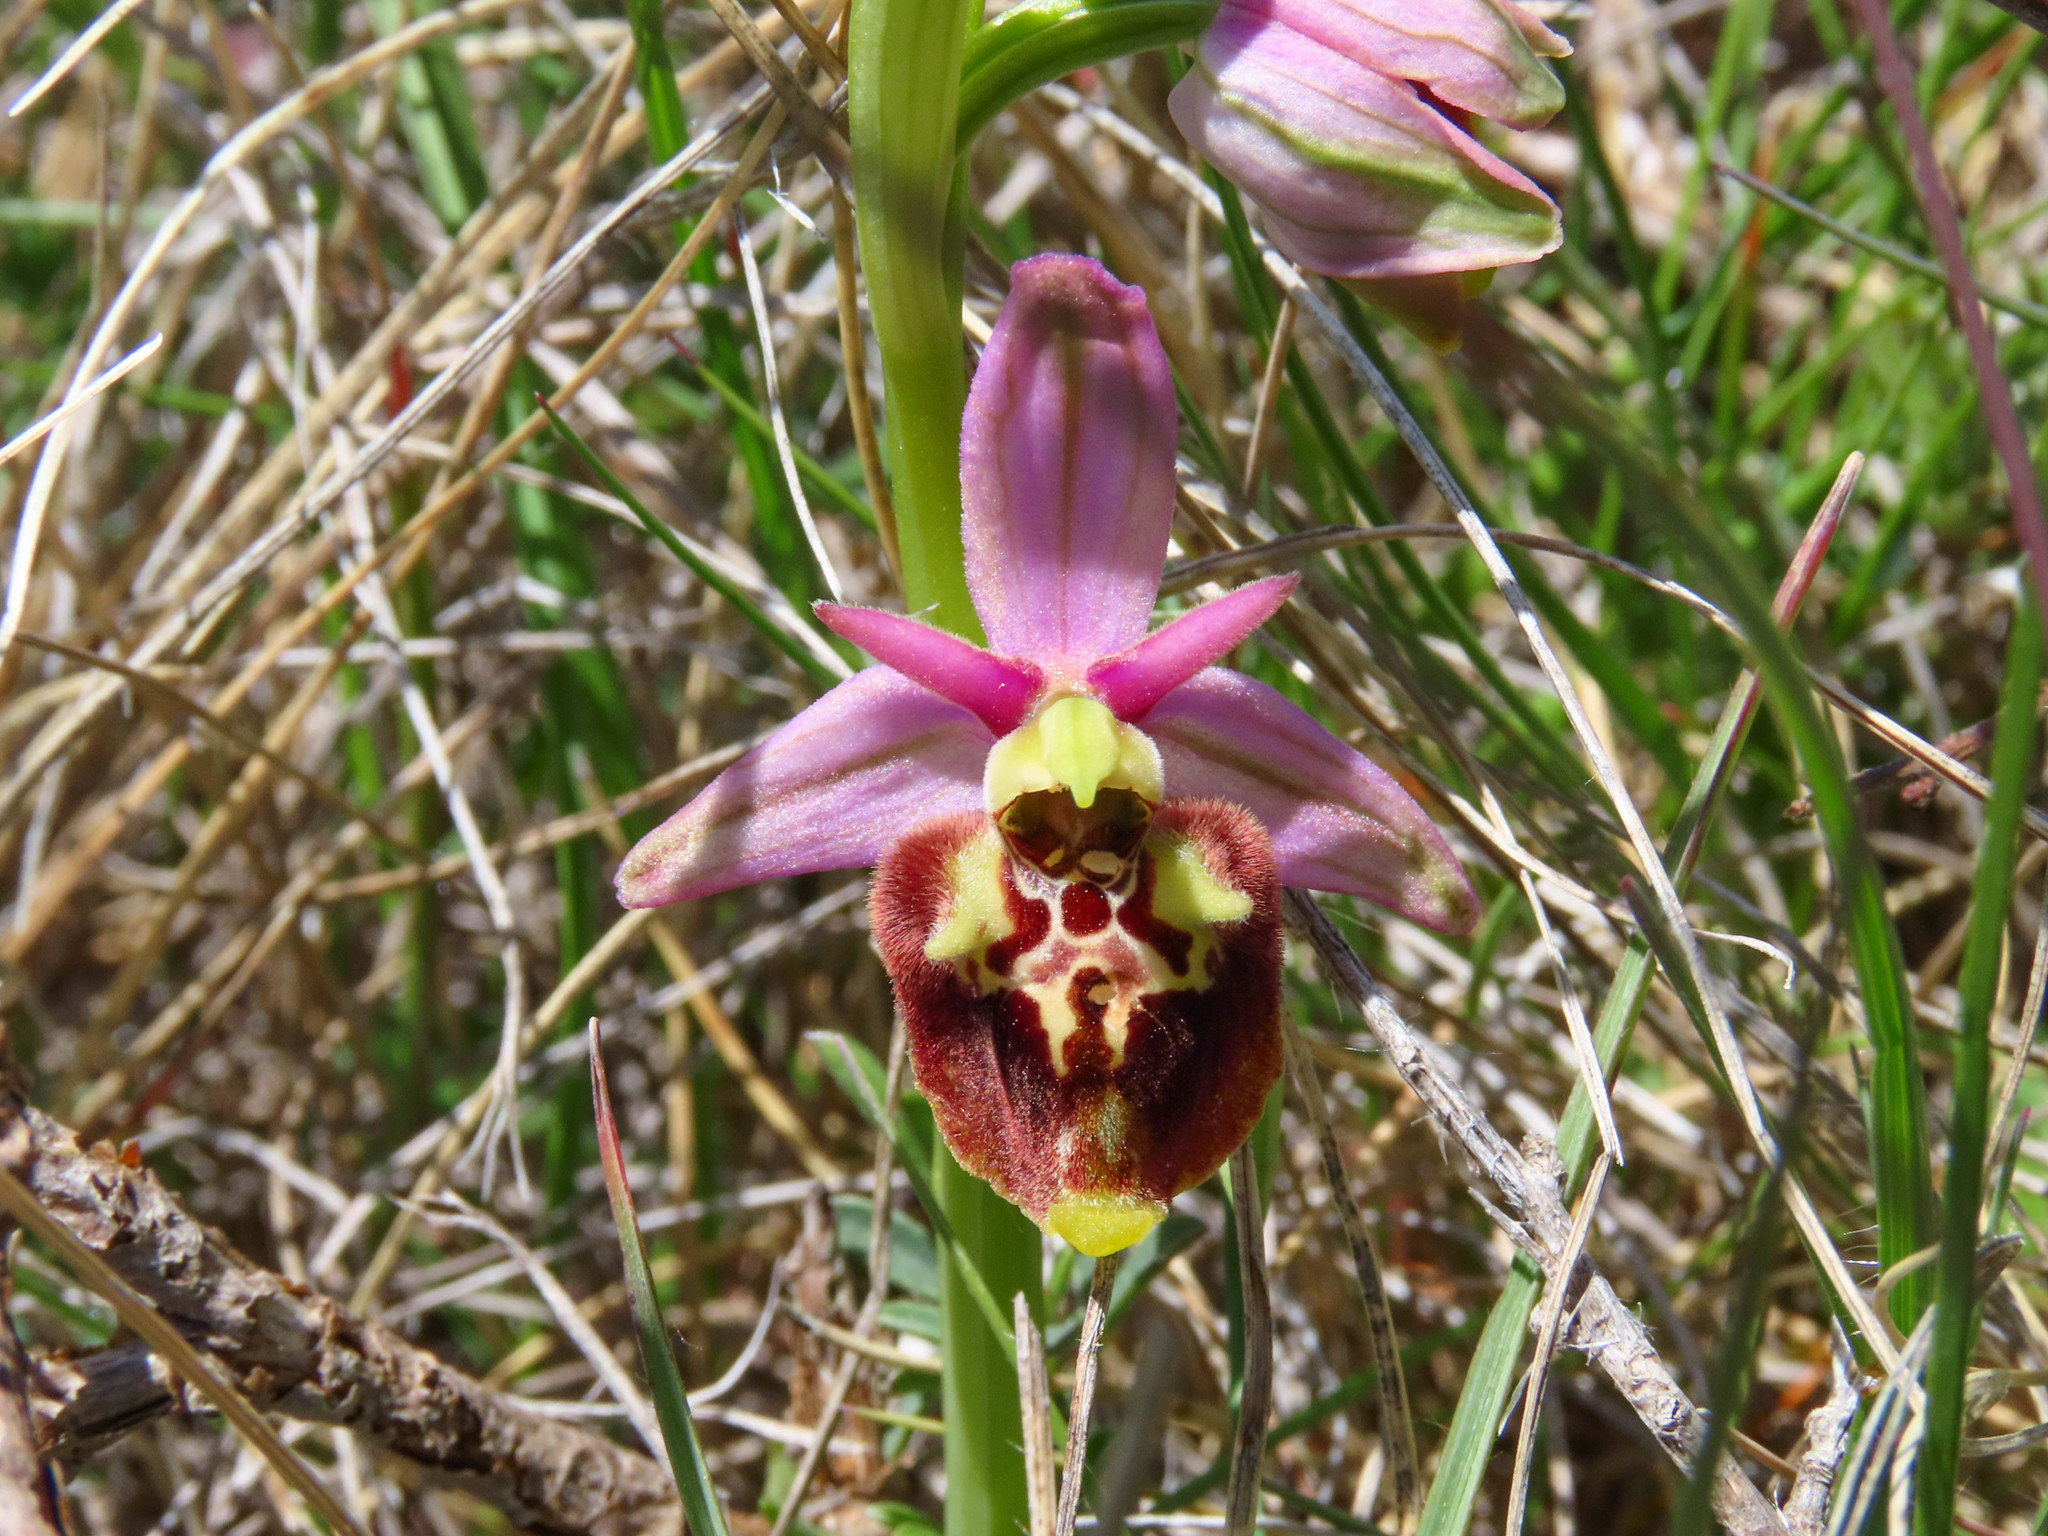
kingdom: Plantae
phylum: Tracheophyta
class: Liliopsida
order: Asparagales
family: Orchidaceae
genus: Ophrys
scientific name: Ophrys holosericea
